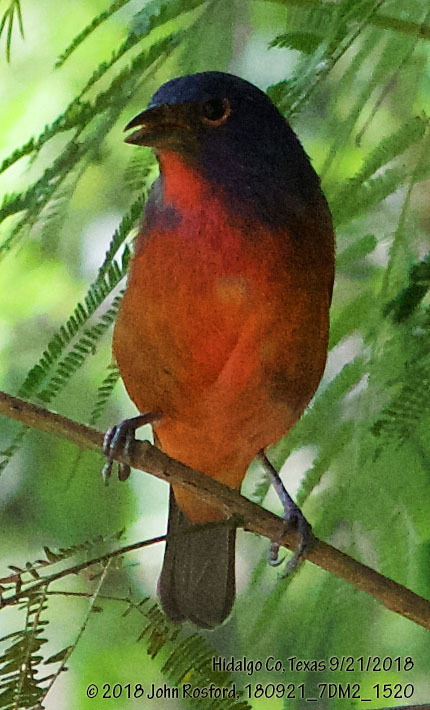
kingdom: Animalia
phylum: Chordata
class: Aves
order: Passeriformes
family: Cardinalidae
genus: Passerina
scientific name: Passerina ciris
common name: Painted bunting
